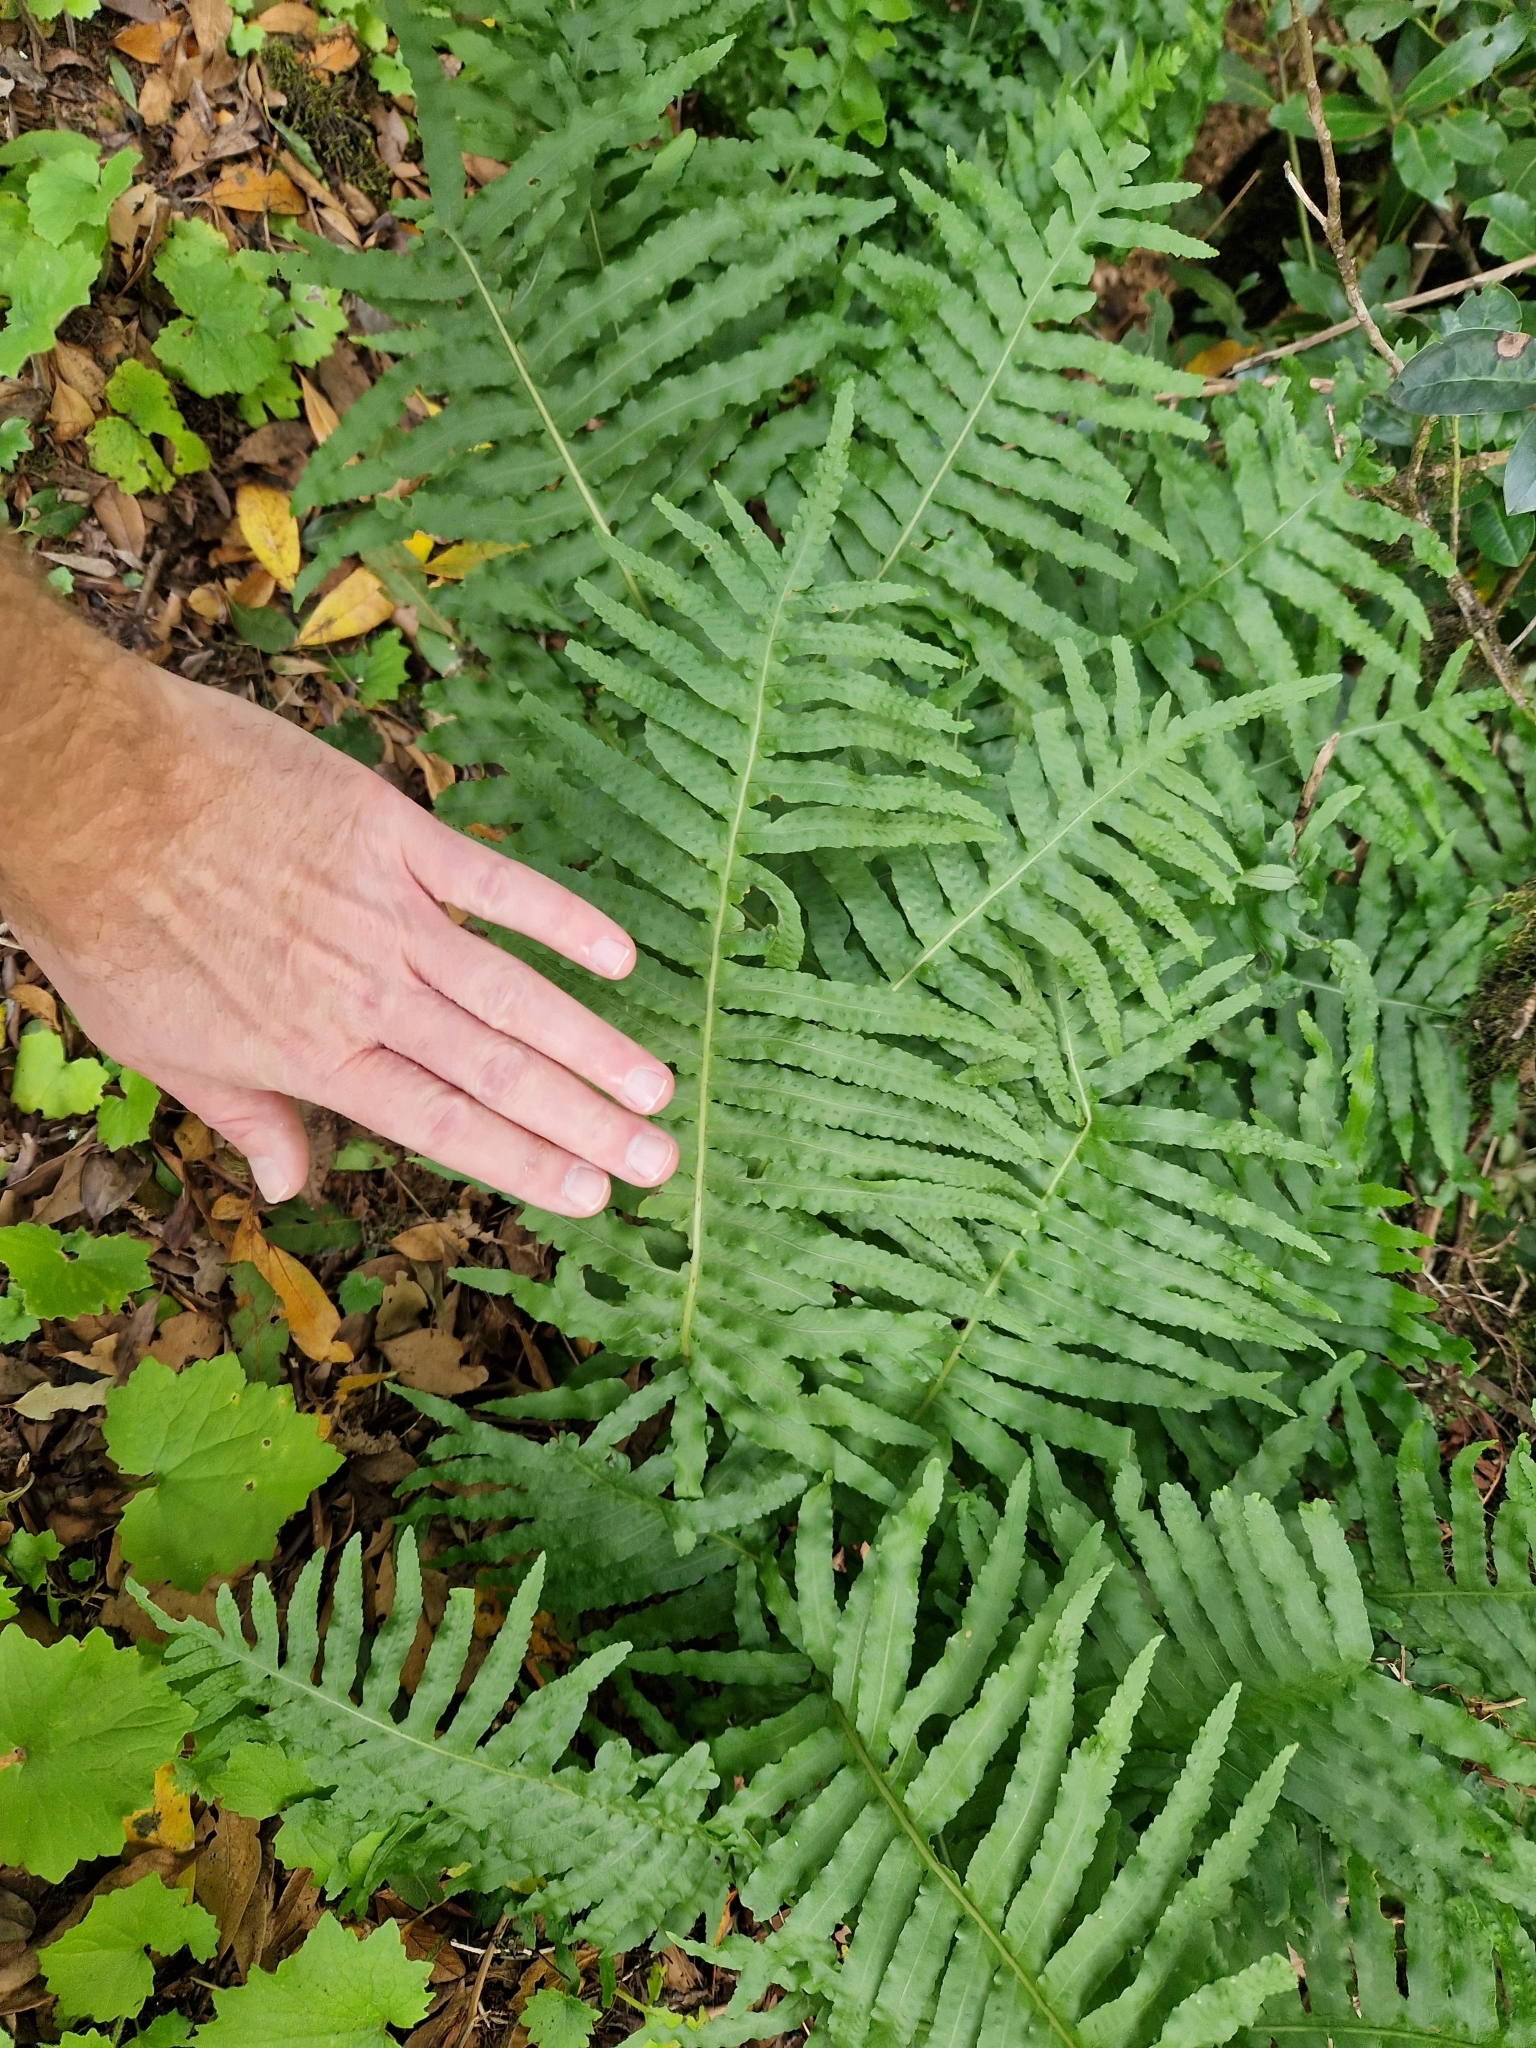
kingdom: Plantae
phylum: Tracheophyta
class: Polypodiopsida
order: Polypodiales
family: Polypodiaceae
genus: Polypodium
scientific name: Polypodium macaronesicum
